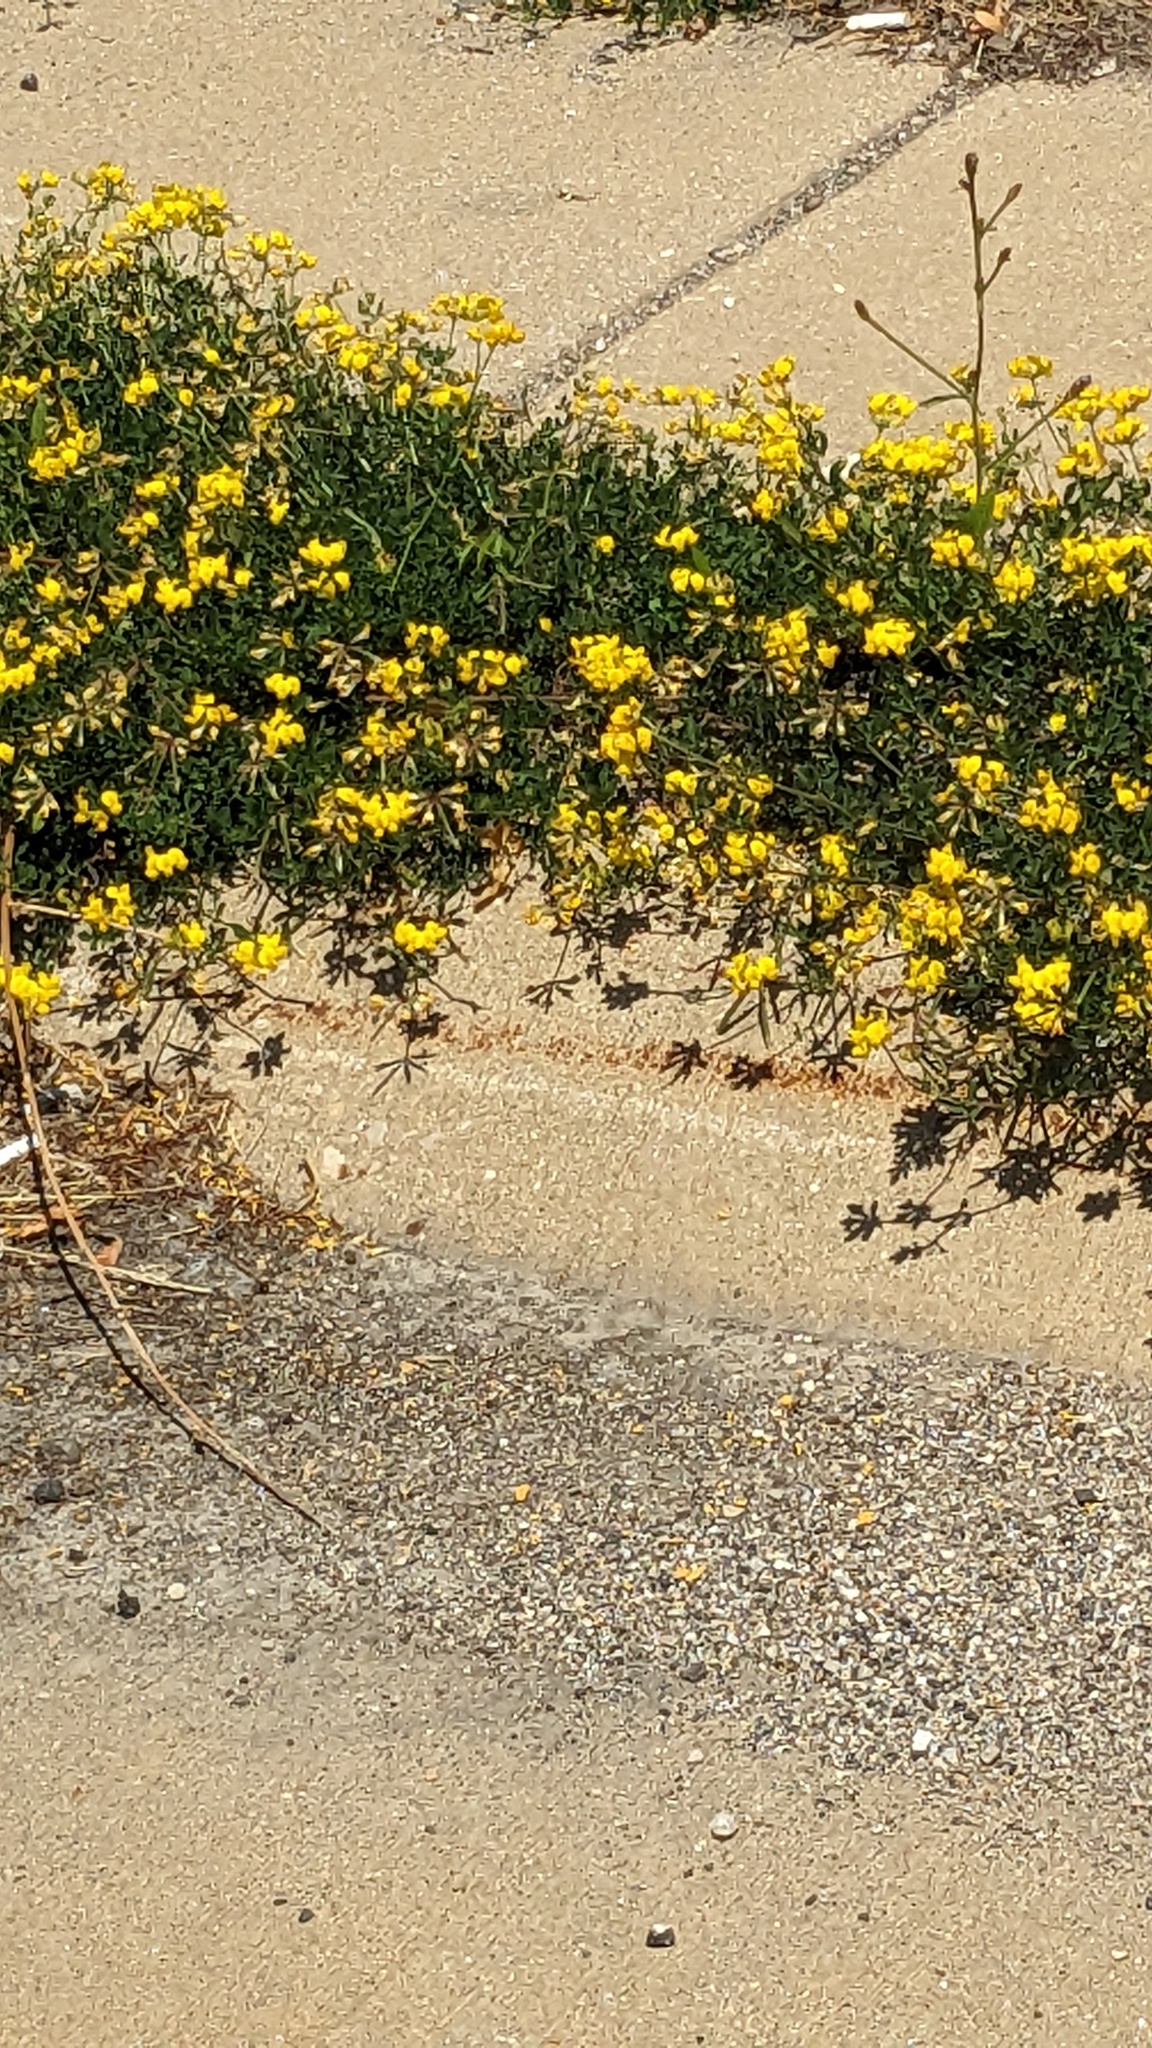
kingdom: Plantae
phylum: Tracheophyta
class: Magnoliopsida
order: Fabales
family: Fabaceae
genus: Lotus
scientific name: Lotus corniculatus
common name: Common bird's-foot-trefoil
